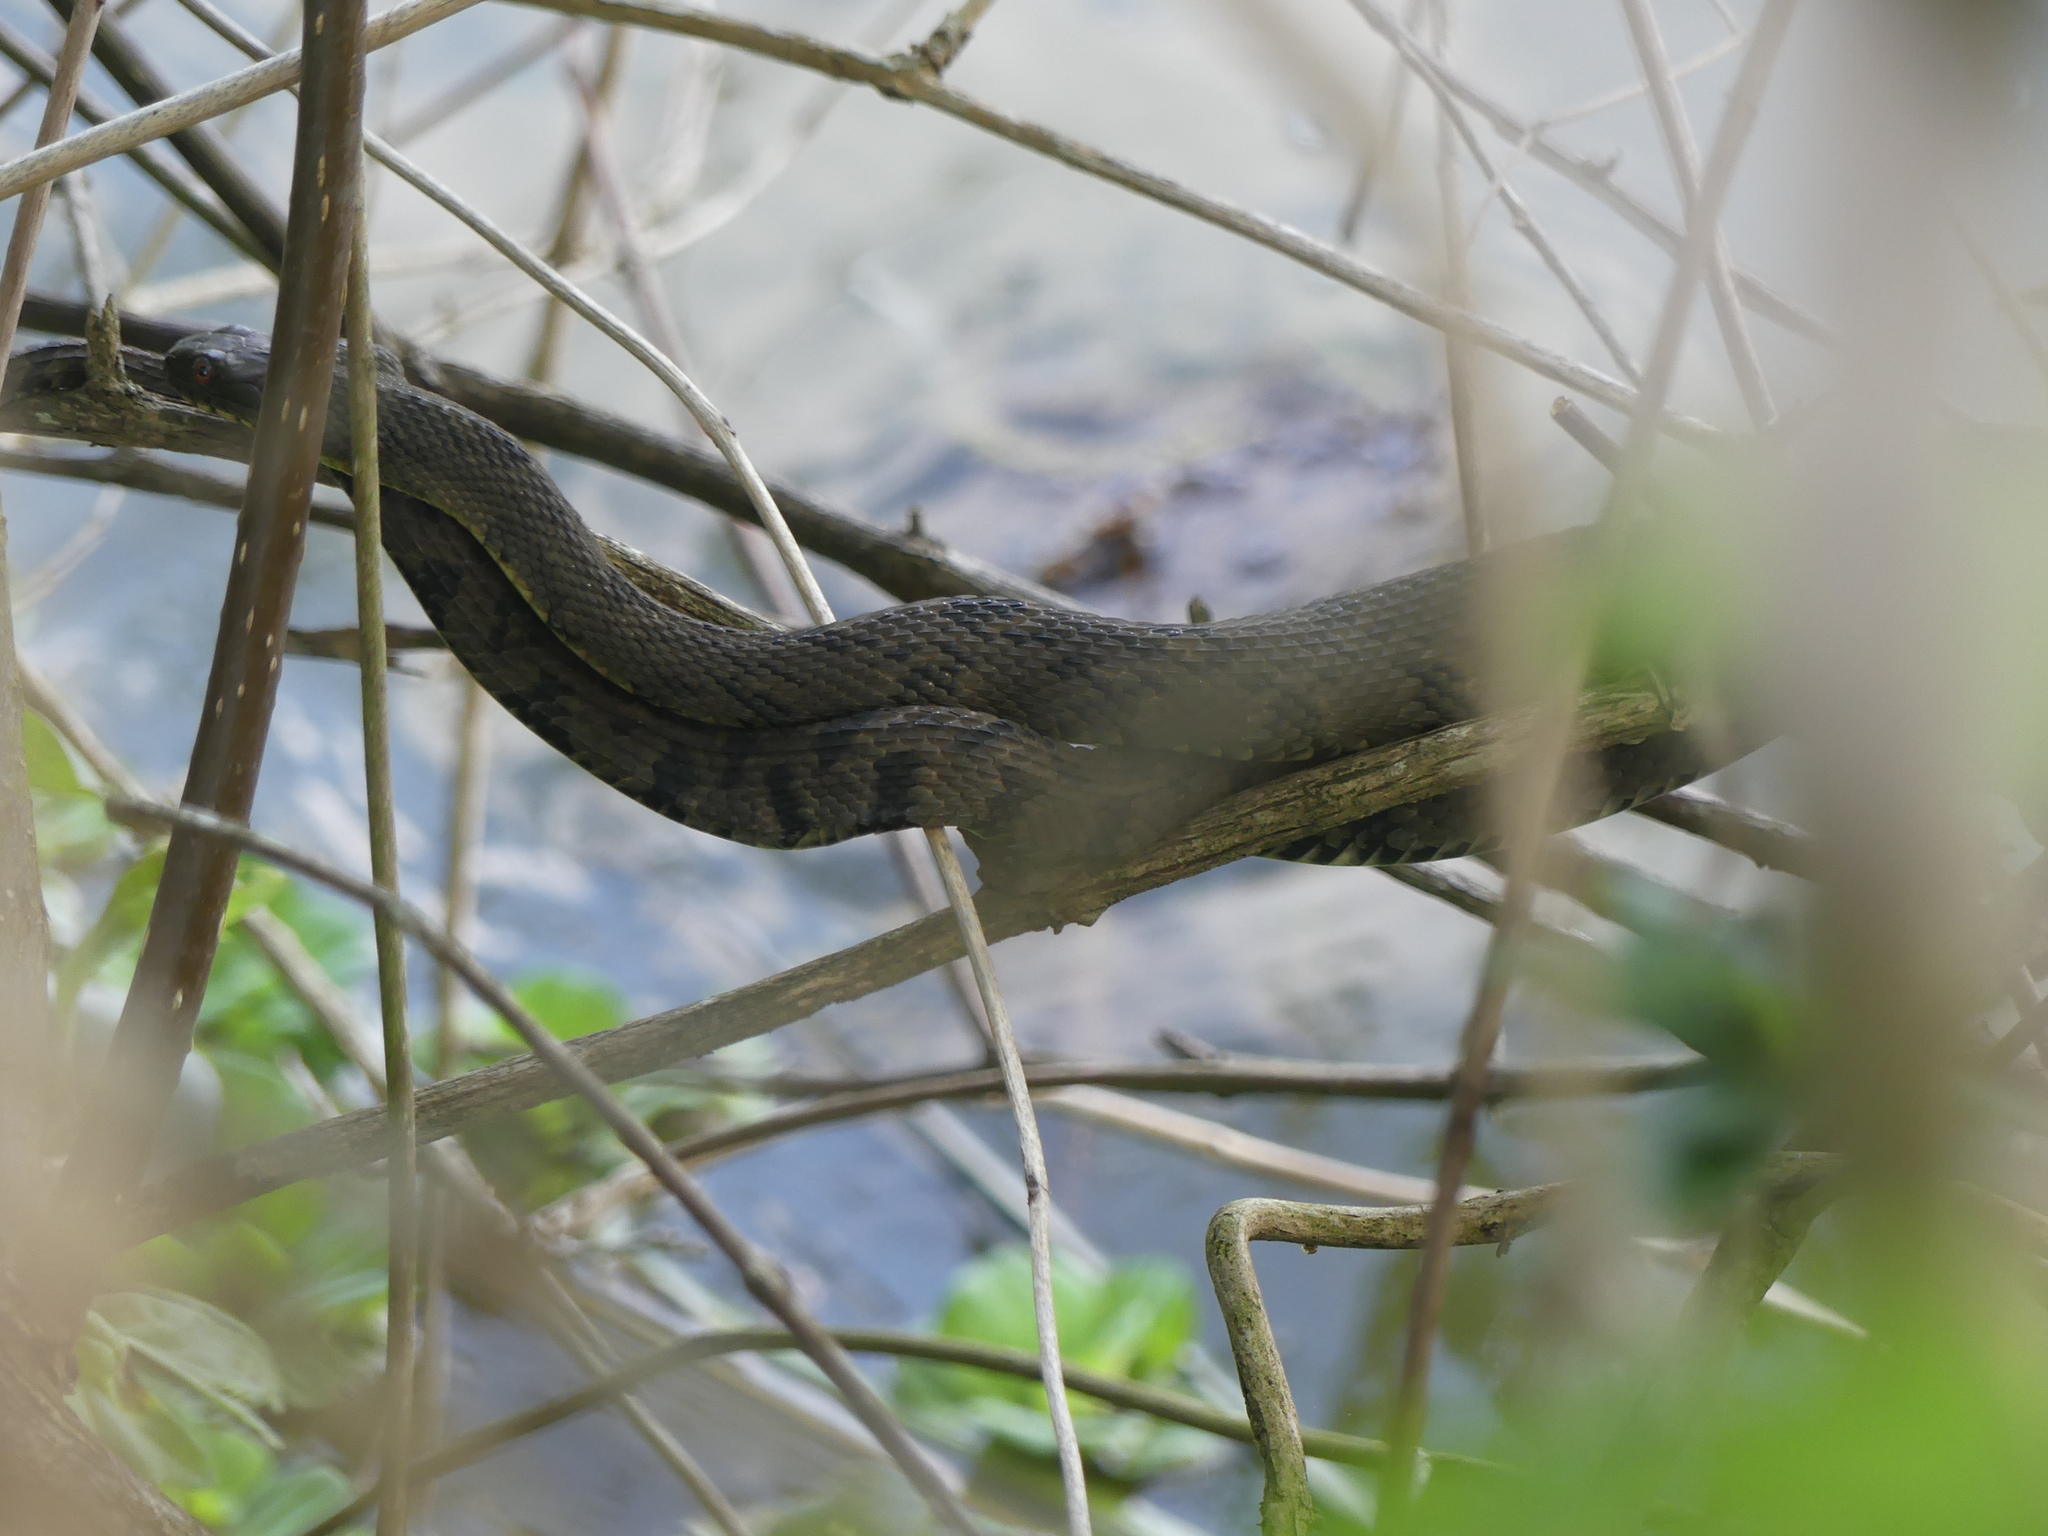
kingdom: Animalia
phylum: Chordata
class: Squamata
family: Colubridae
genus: Nerodia
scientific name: Nerodia rhombifer
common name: Diamondback water snake
